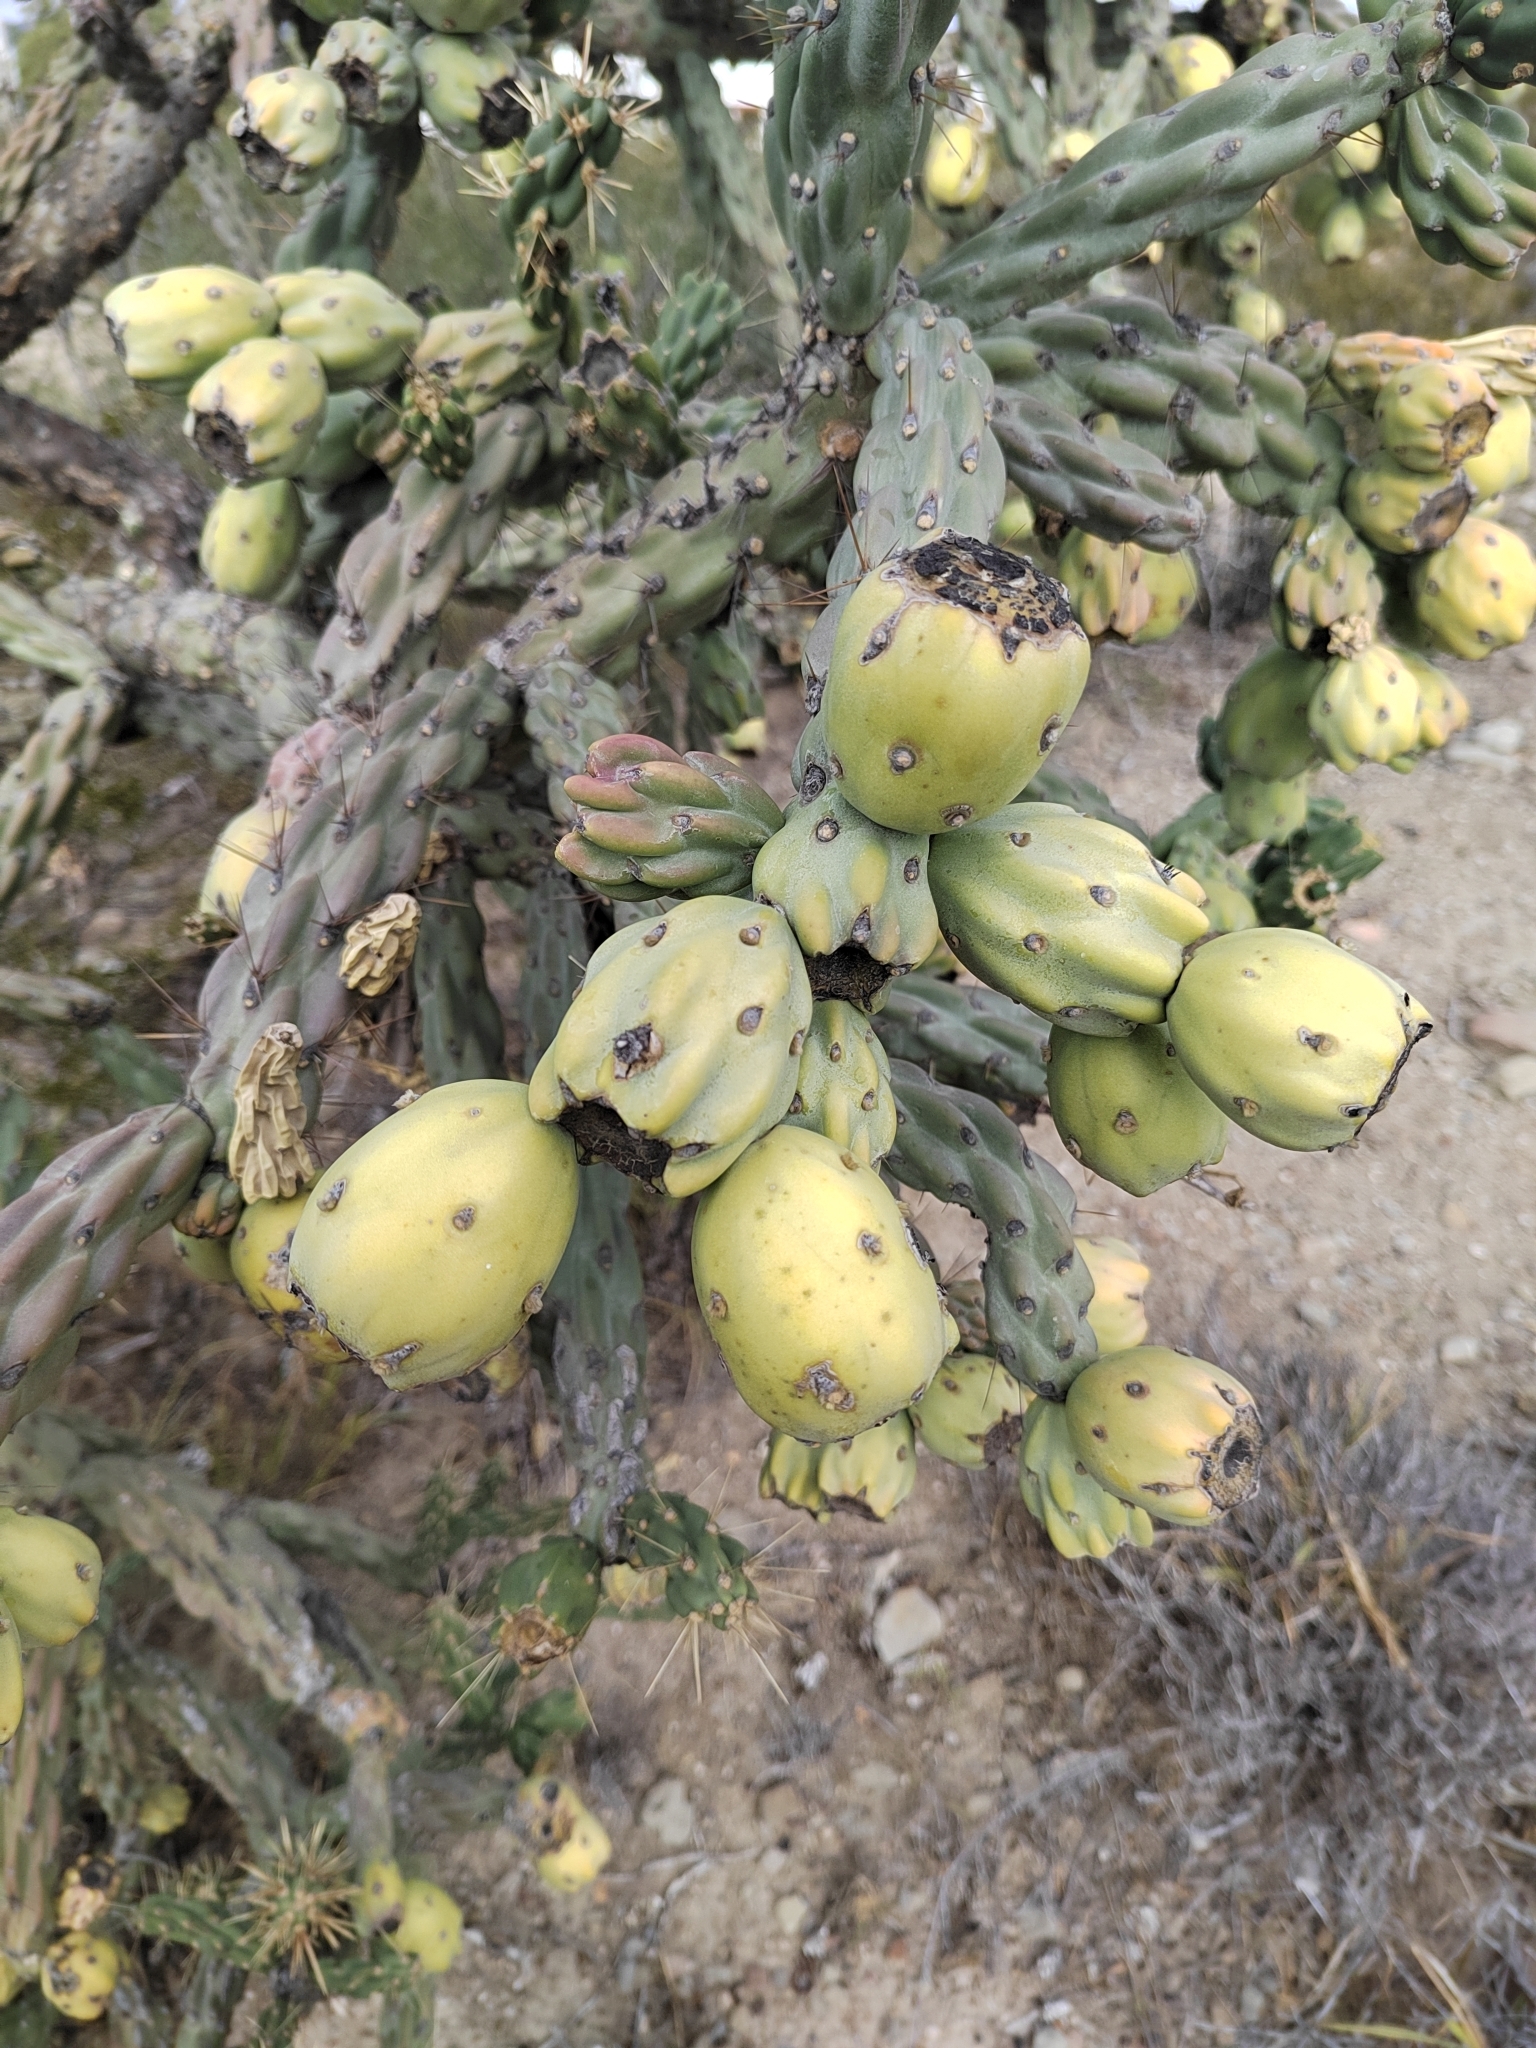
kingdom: Plantae
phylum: Tracheophyta
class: Magnoliopsida
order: Caryophyllales
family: Cactaceae
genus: Cylindropuntia
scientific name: Cylindropuntia imbricata
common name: Candelabrum cactus
